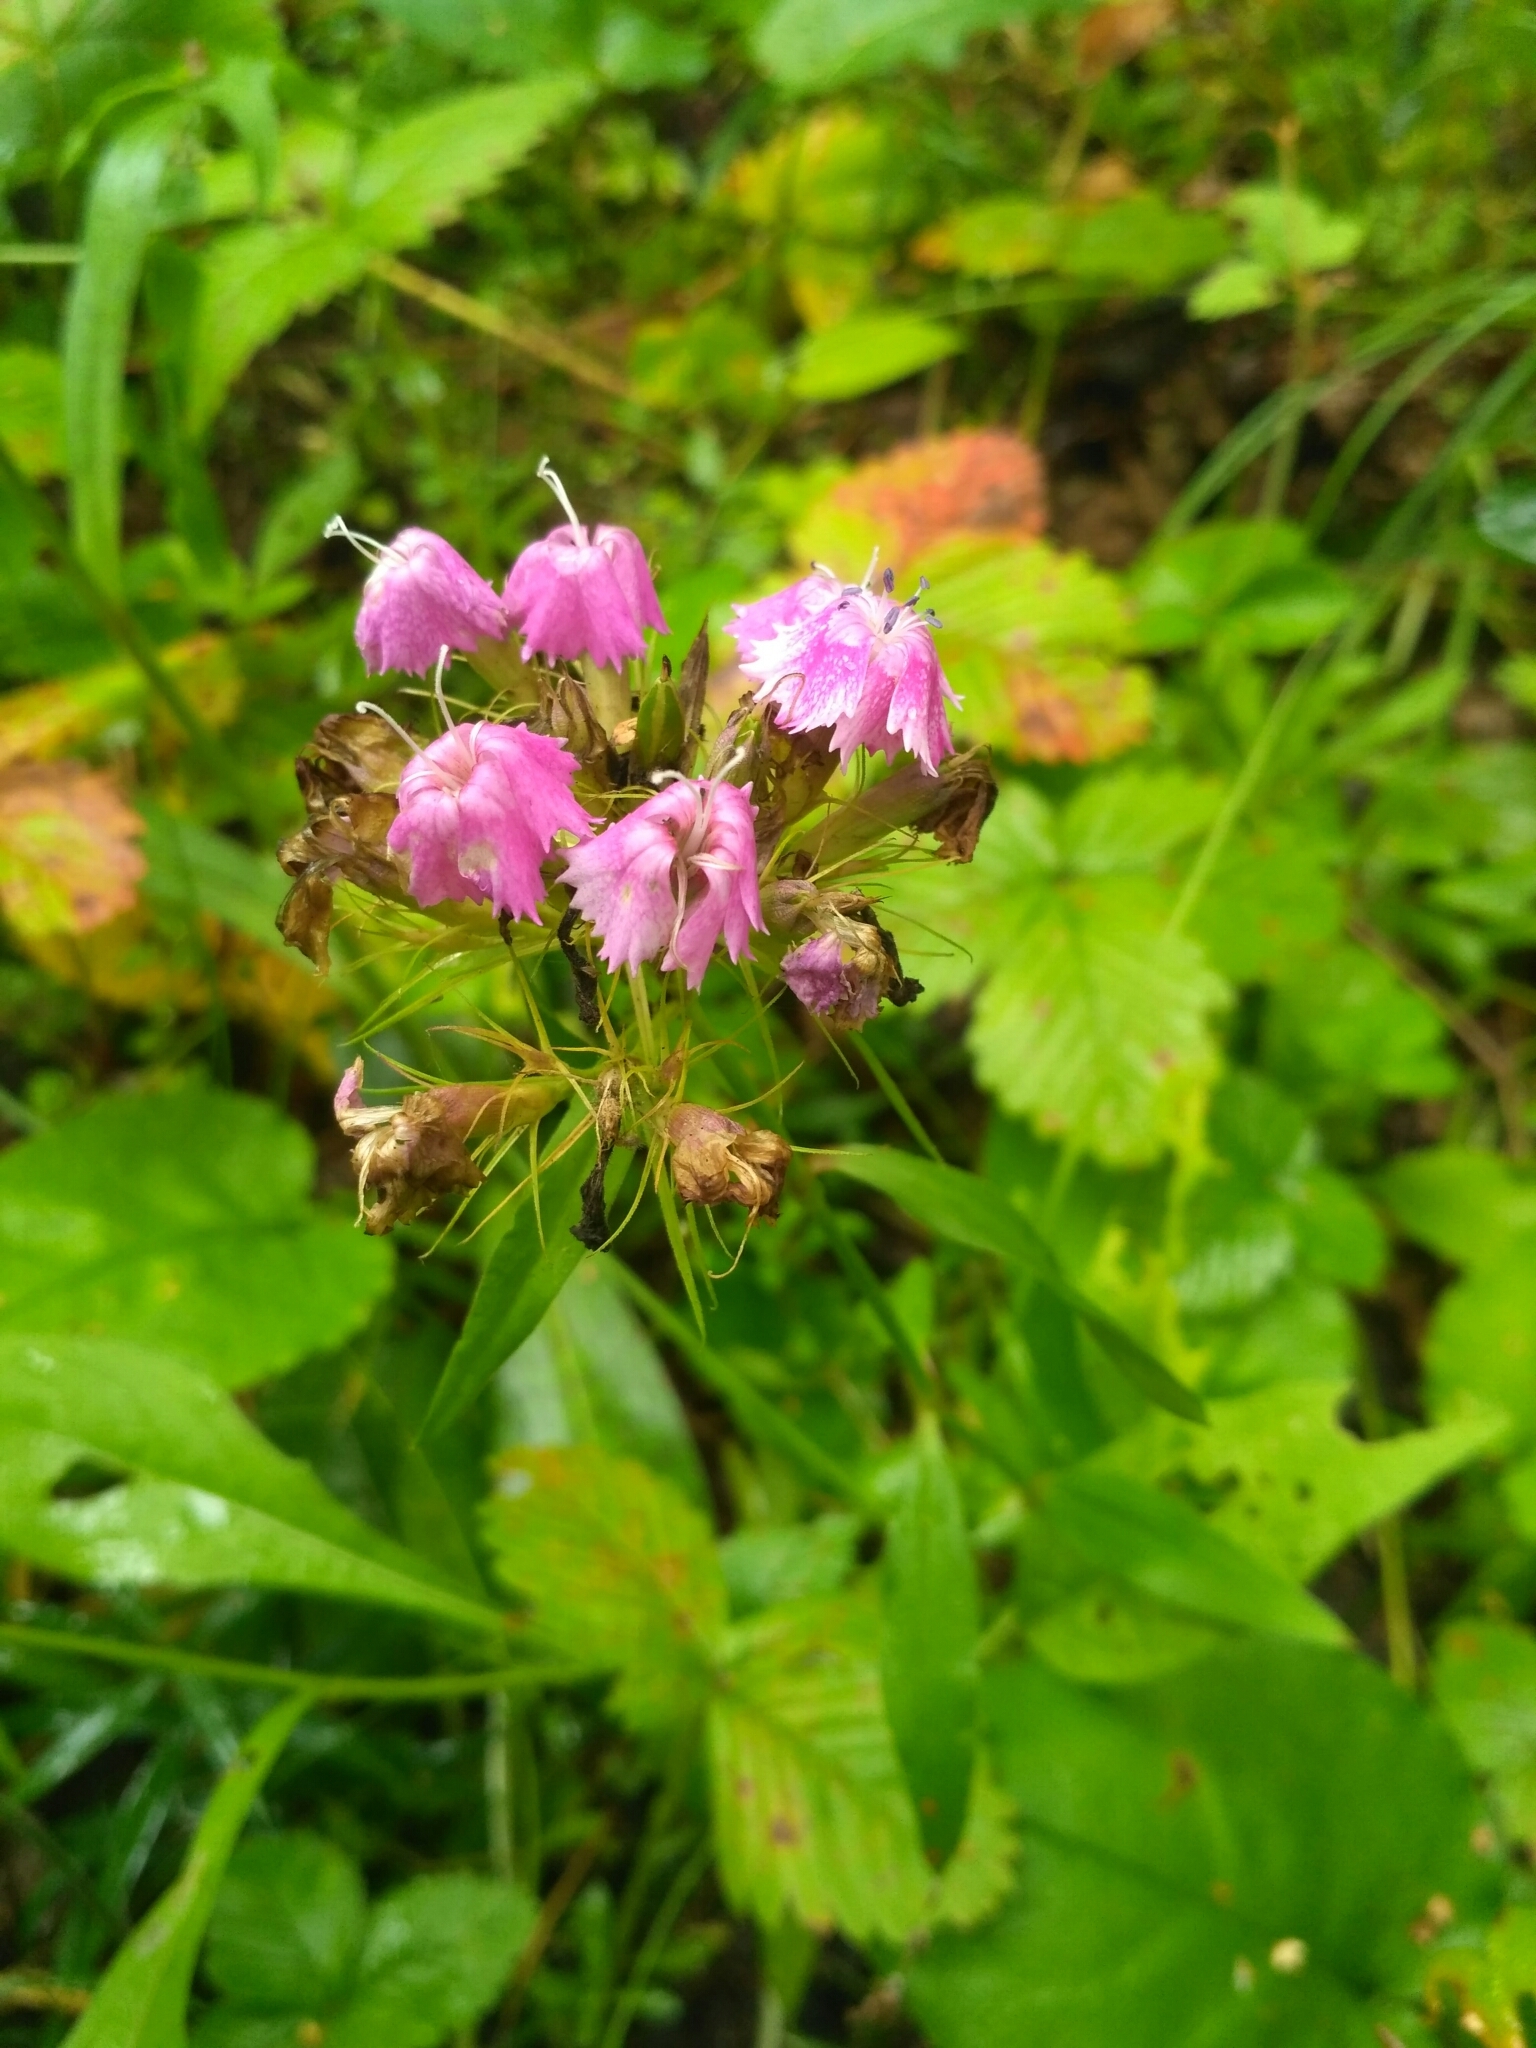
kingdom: Plantae
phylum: Tracheophyta
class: Magnoliopsida
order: Caryophyllales
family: Caryophyllaceae
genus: Dianthus
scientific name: Dianthus barbatus
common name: Sweet-william
